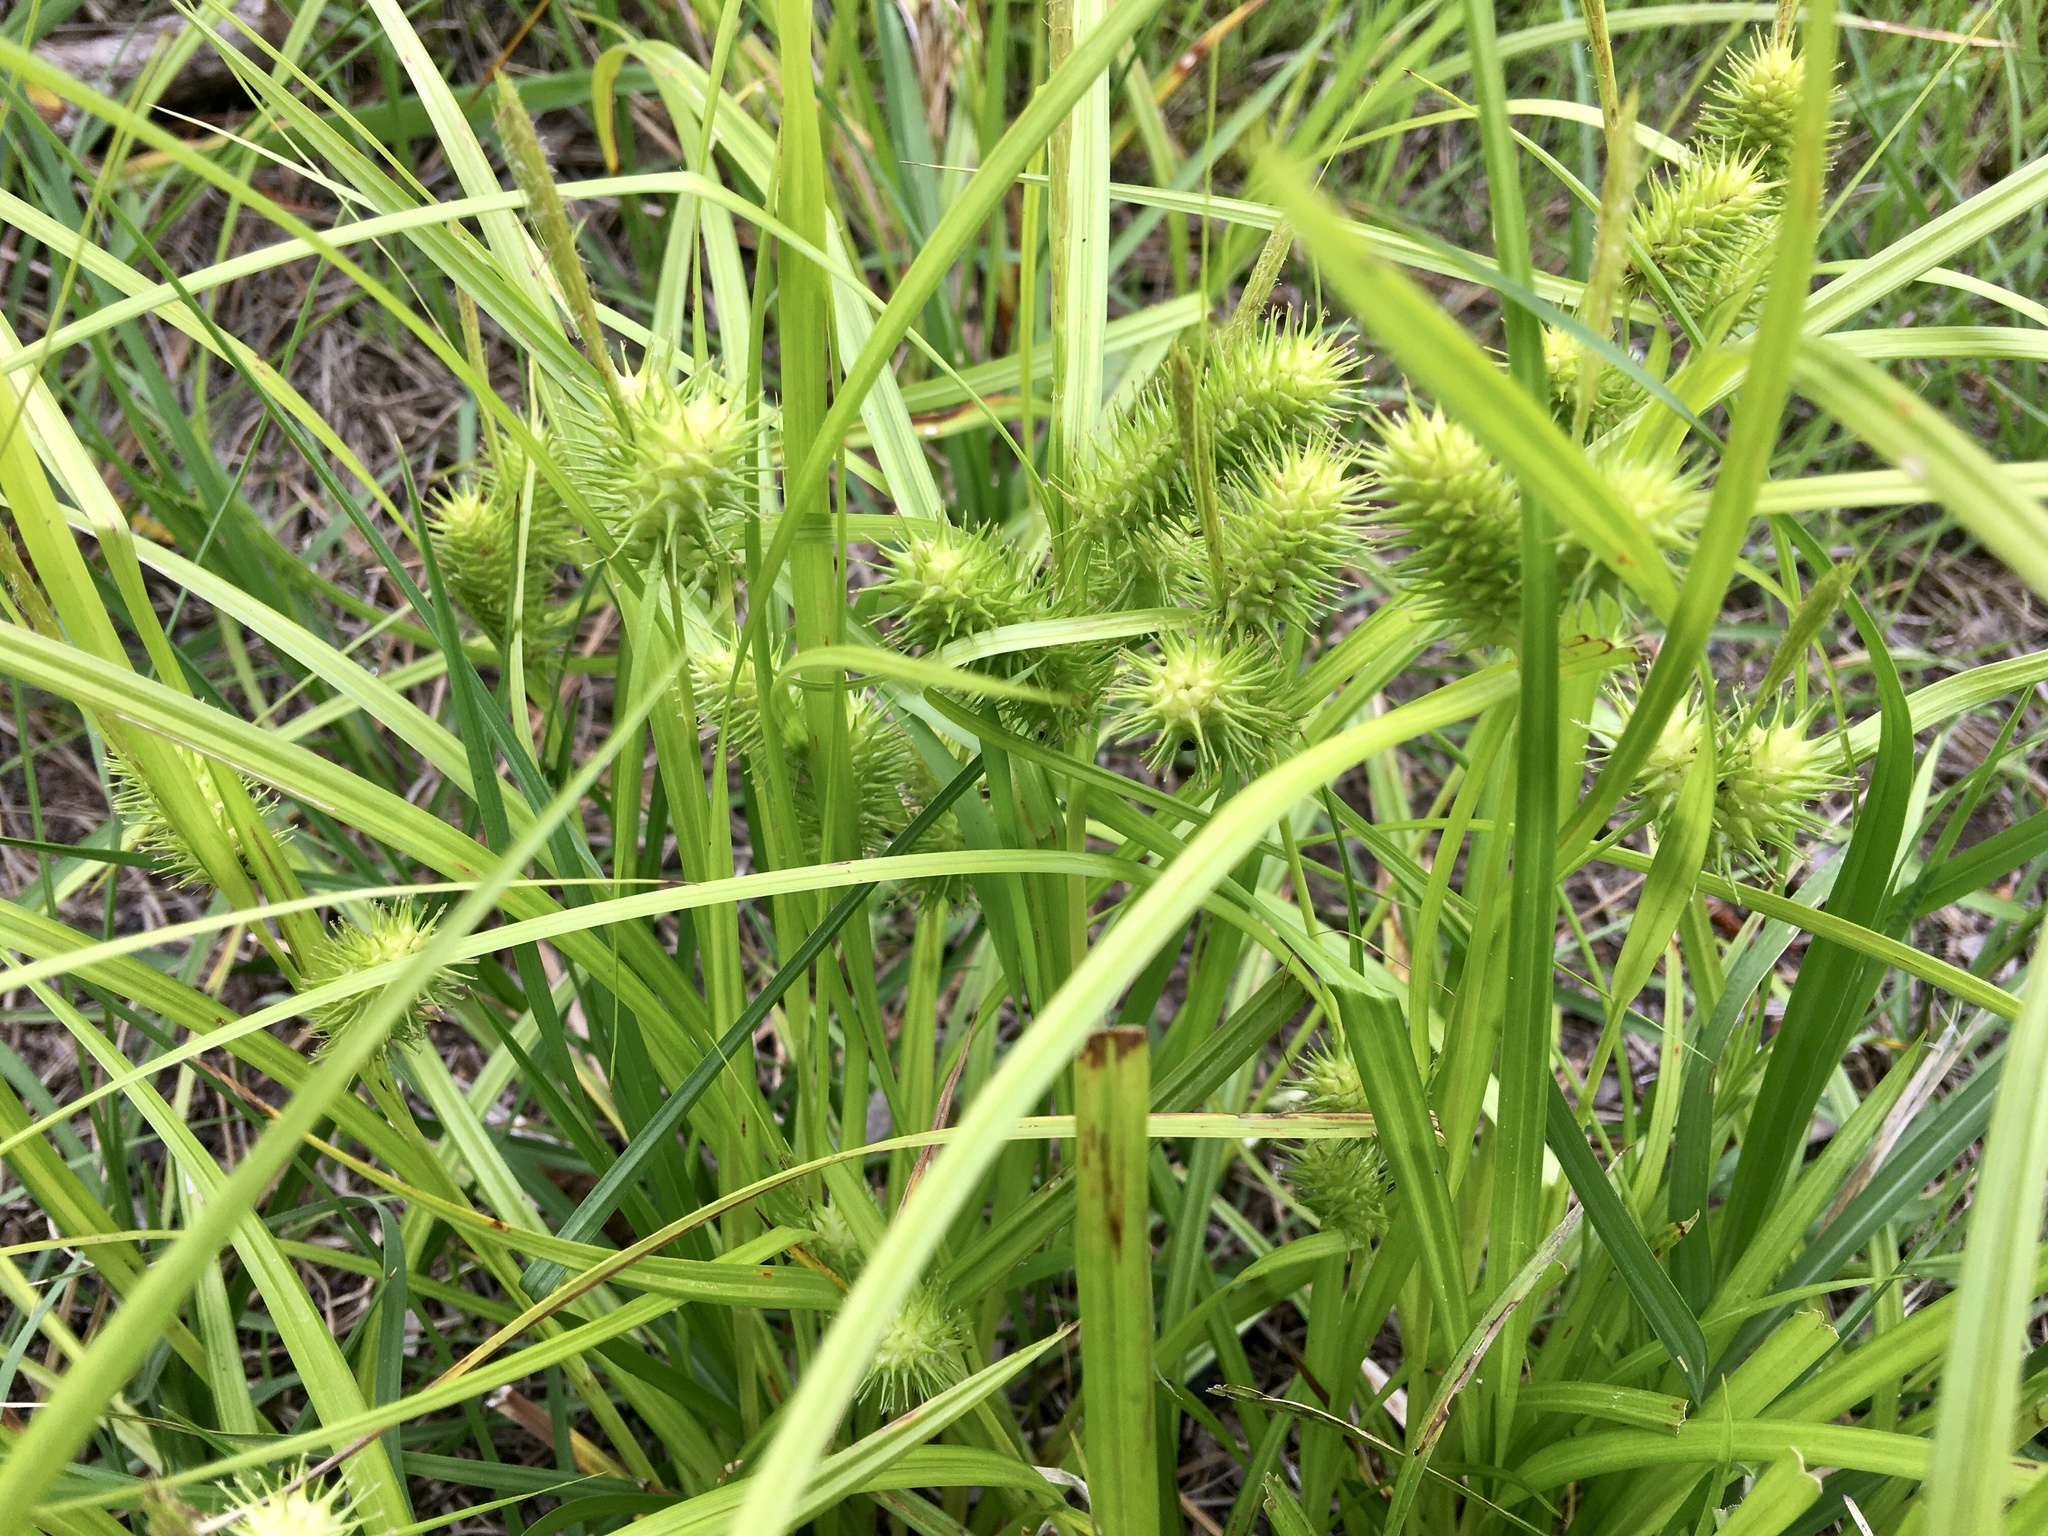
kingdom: Plantae
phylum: Tracheophyta
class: Liliopsida
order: Poales
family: Cyperaceae
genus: Carex
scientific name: Carex lurida
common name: Sallow sedge
